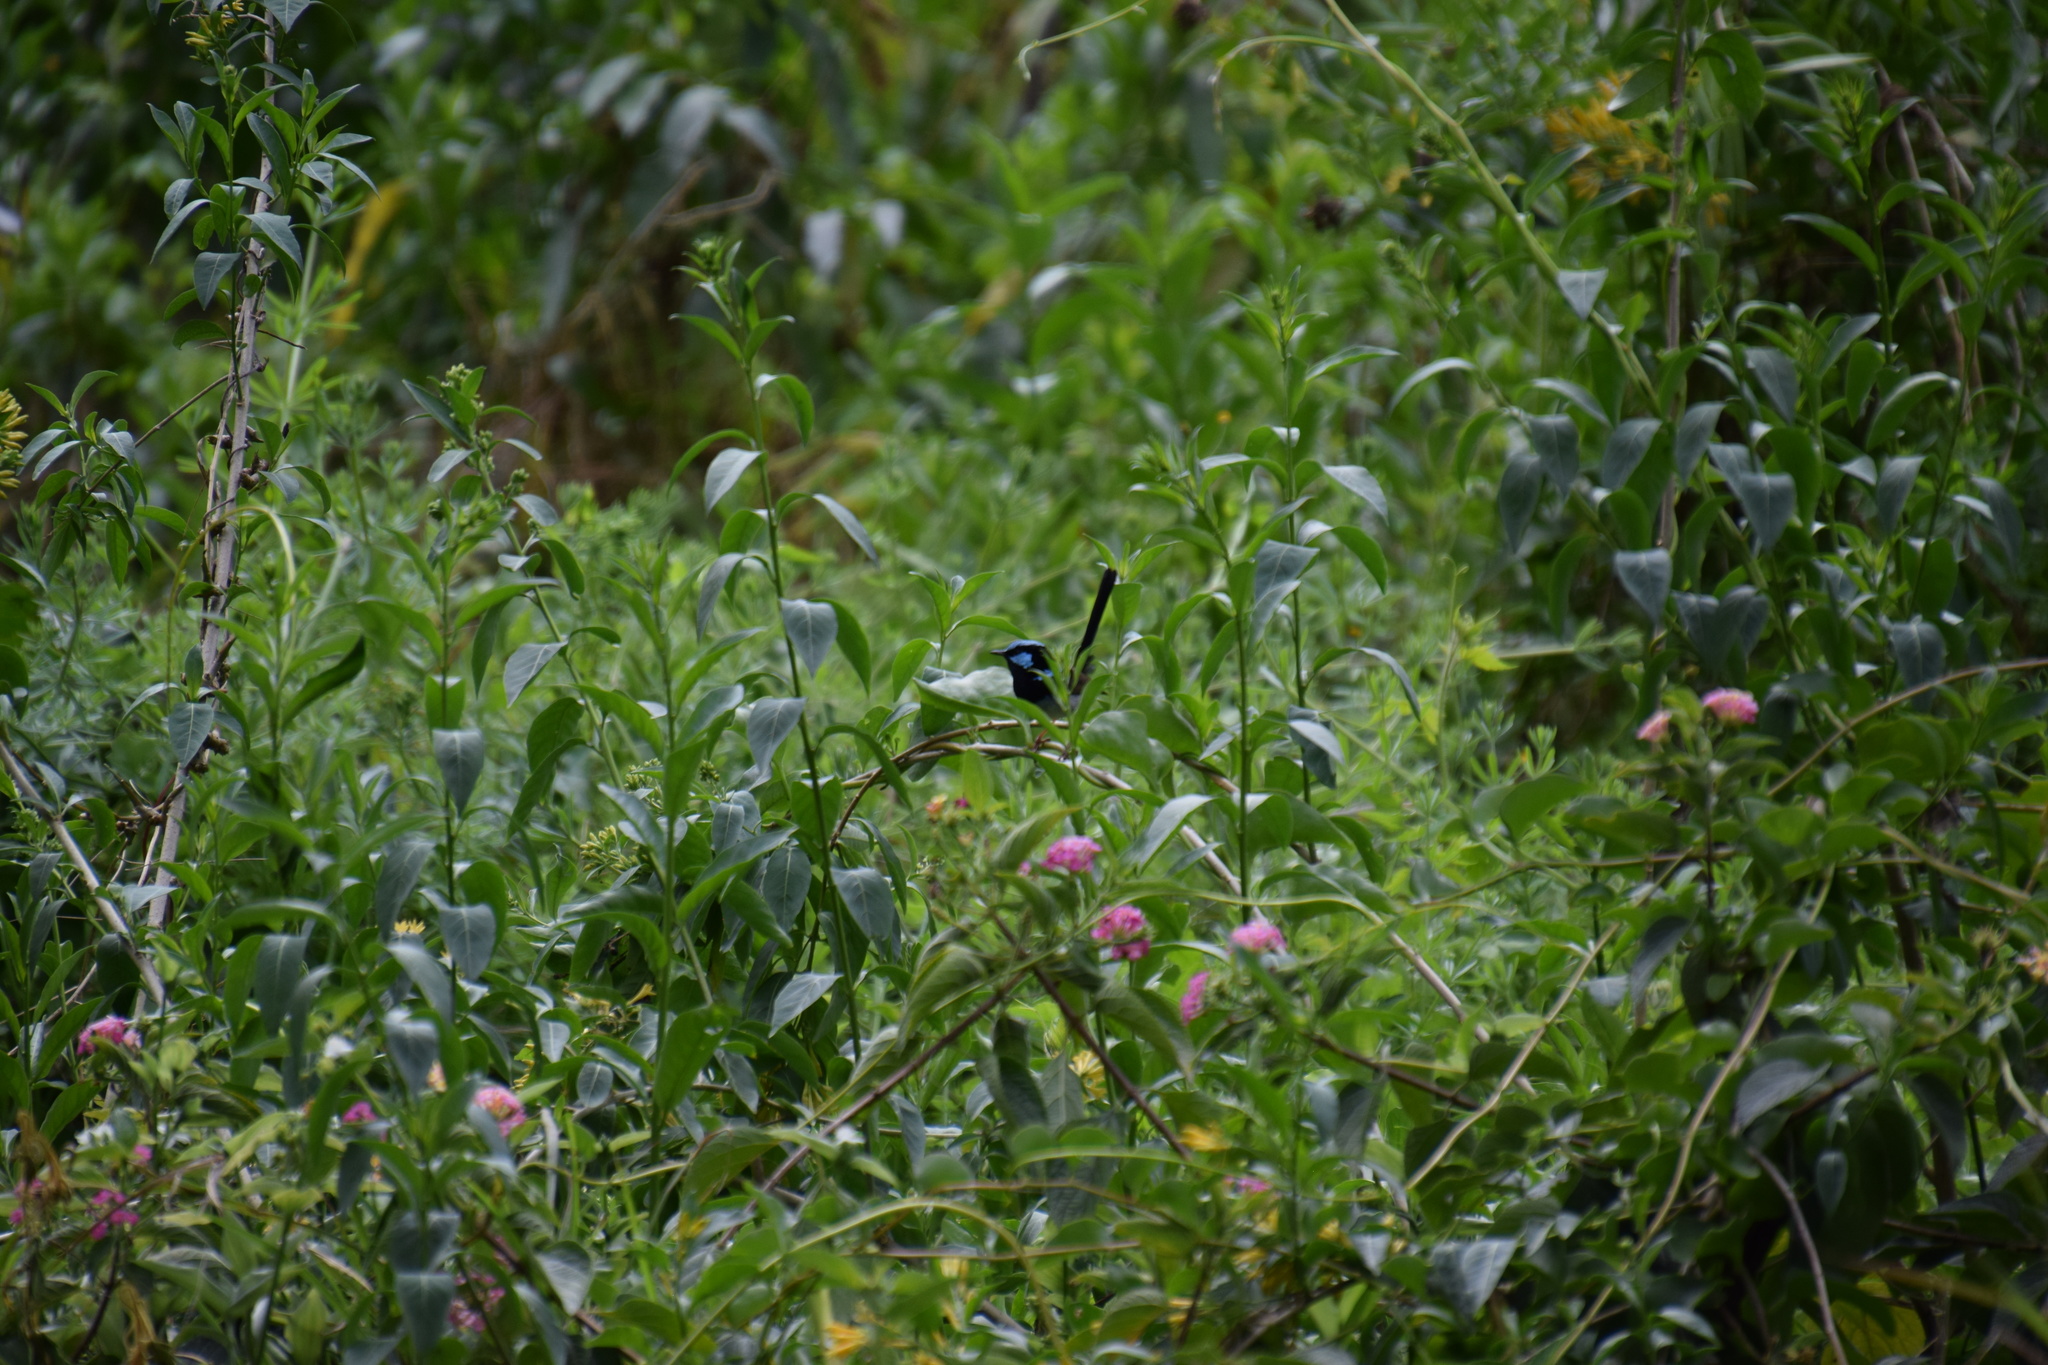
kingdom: Animalia
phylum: Chordata
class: Aves
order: Passeriformes
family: Maluridae
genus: Malurus
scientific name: Malurus cyaneus
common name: Superb fairywren
